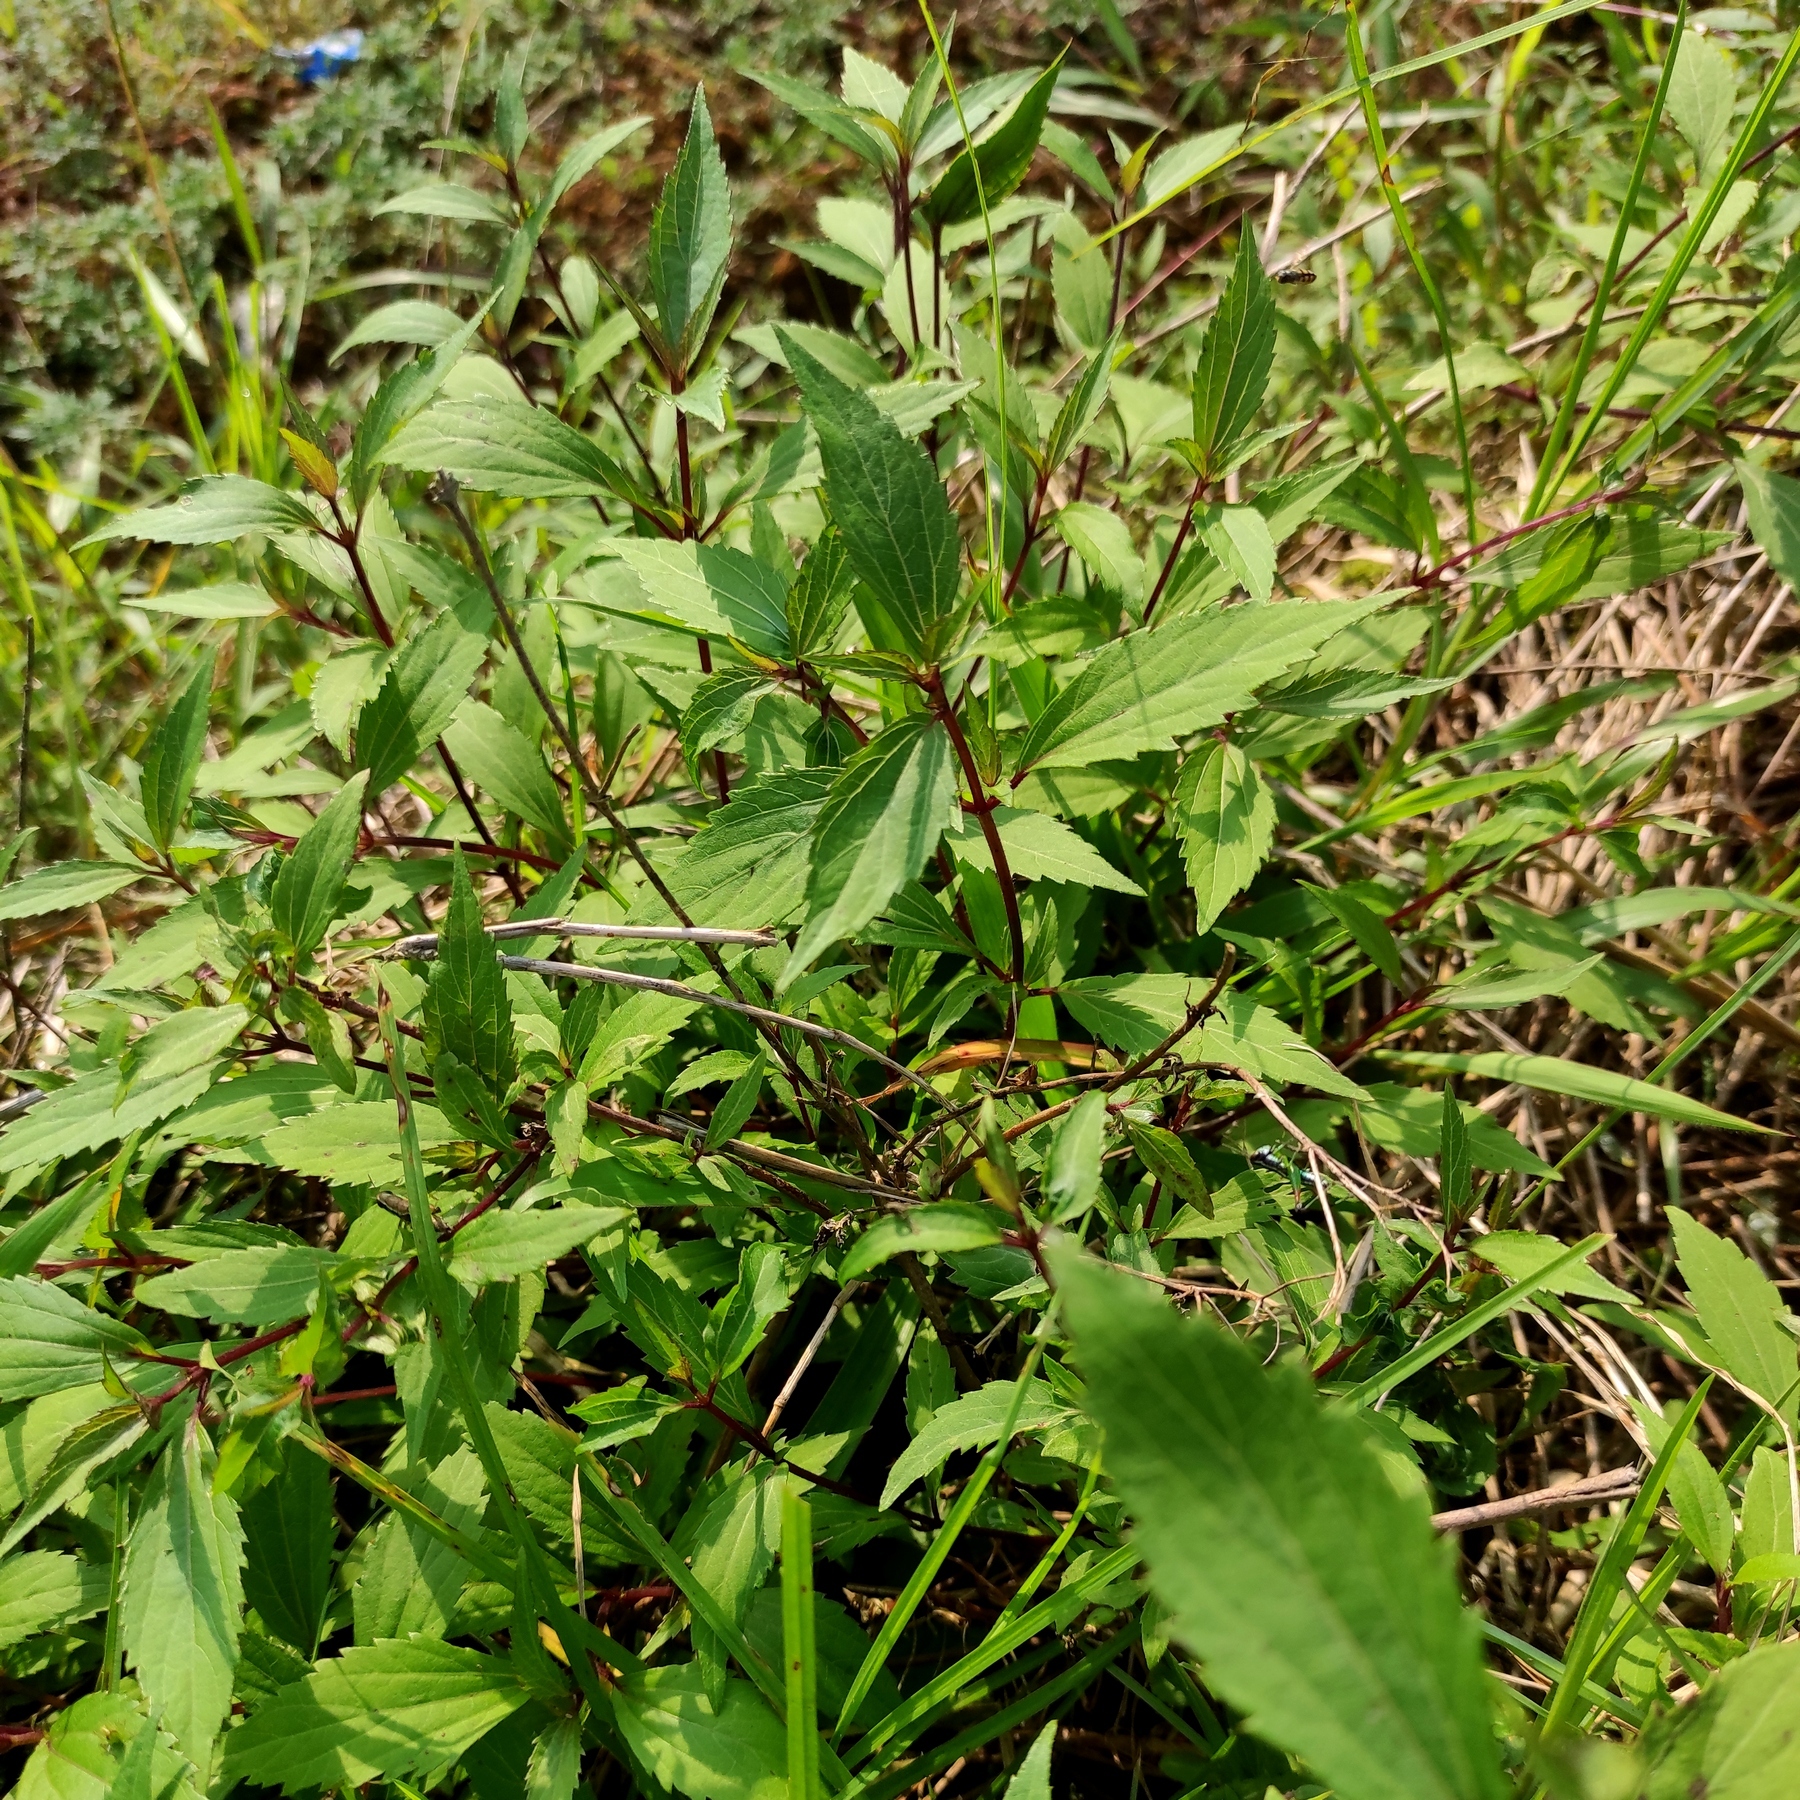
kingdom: Plantae
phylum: Tracheophyta
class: Magnoliopsida
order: Asterales
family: Asteraceae
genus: Ageratina
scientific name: Ageratina riparia
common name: Creeping croftonweed
